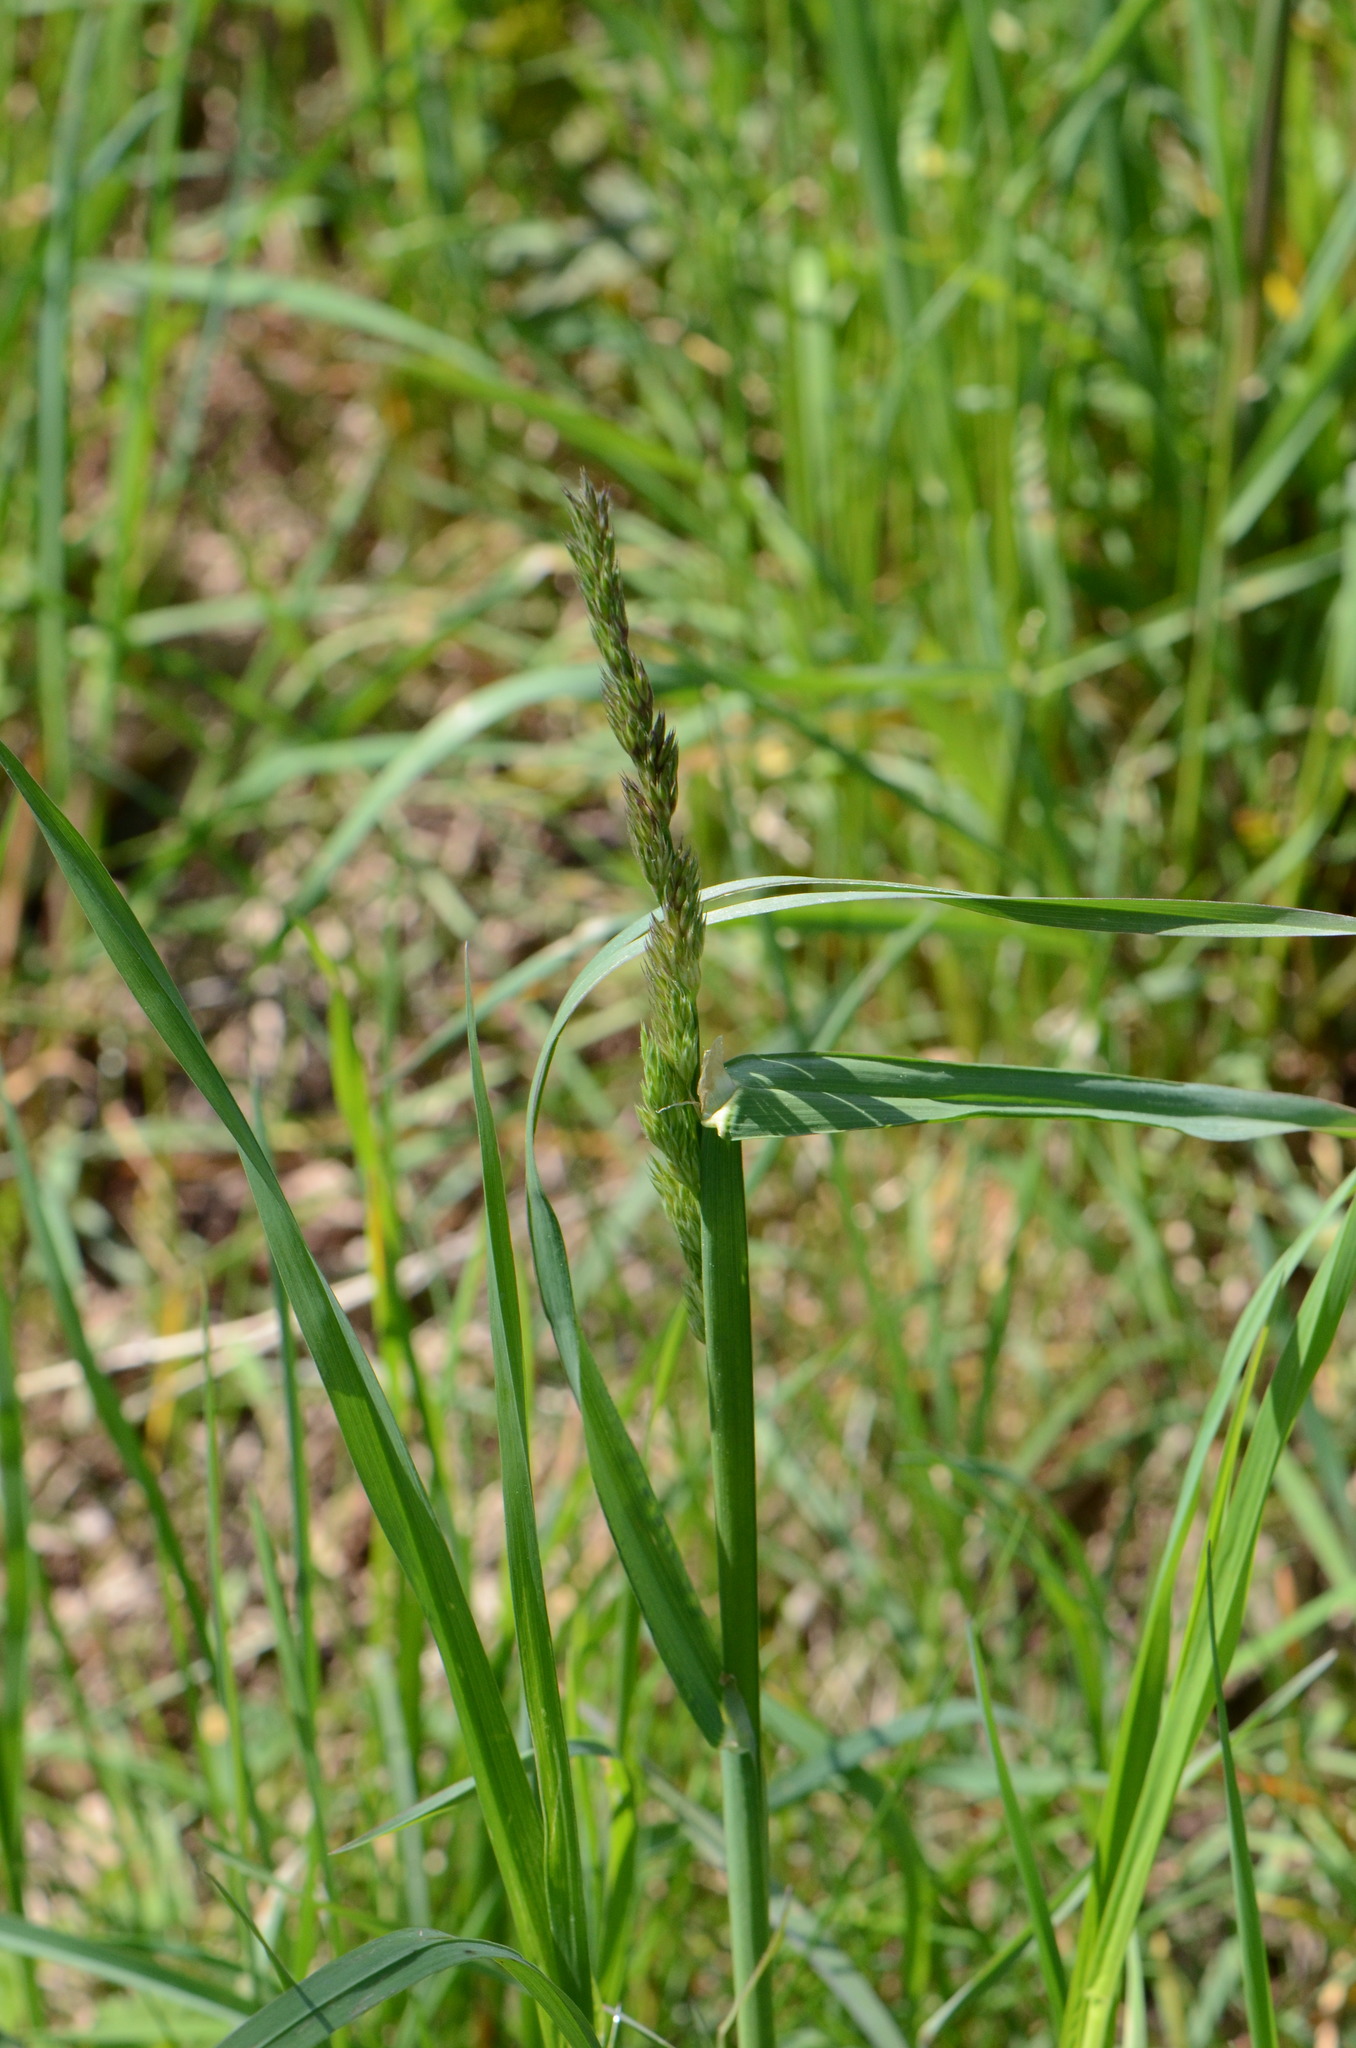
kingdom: Plantae
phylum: Tracheophyta
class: Liliopsida
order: Poales
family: Poaceae
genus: Dactylis
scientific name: Dactylis glomerata
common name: Orchardgrass
